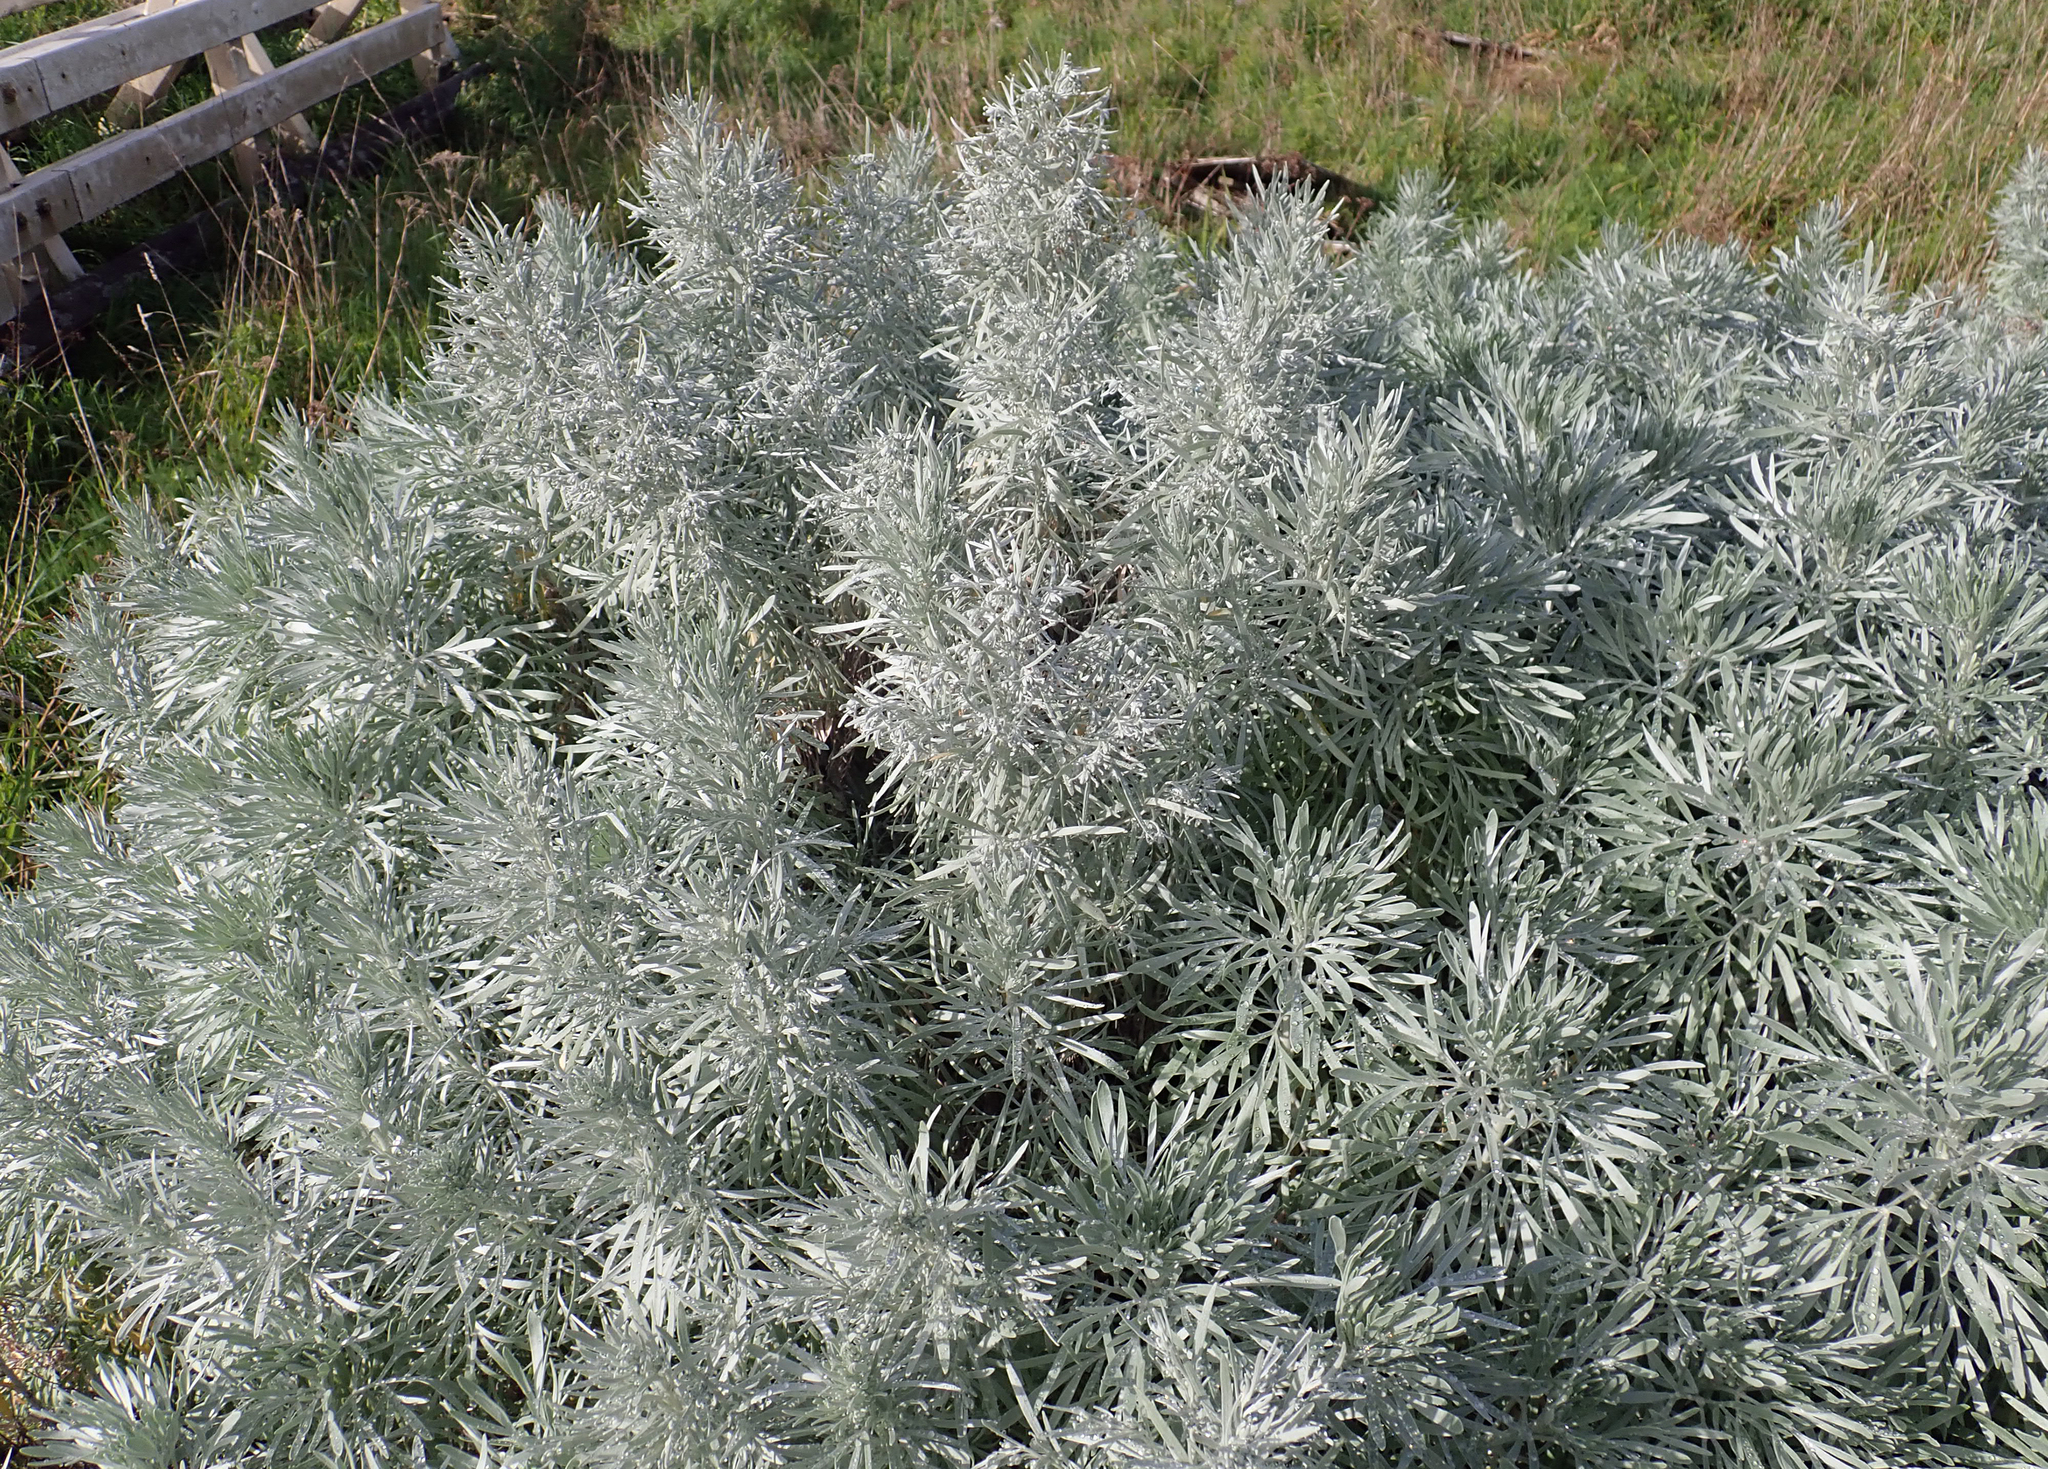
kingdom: Plantae
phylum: Tracheophyta
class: Magnoliopsida
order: Asterales
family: Asteraceae
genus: Artemisia
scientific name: Artemisia arborescens
